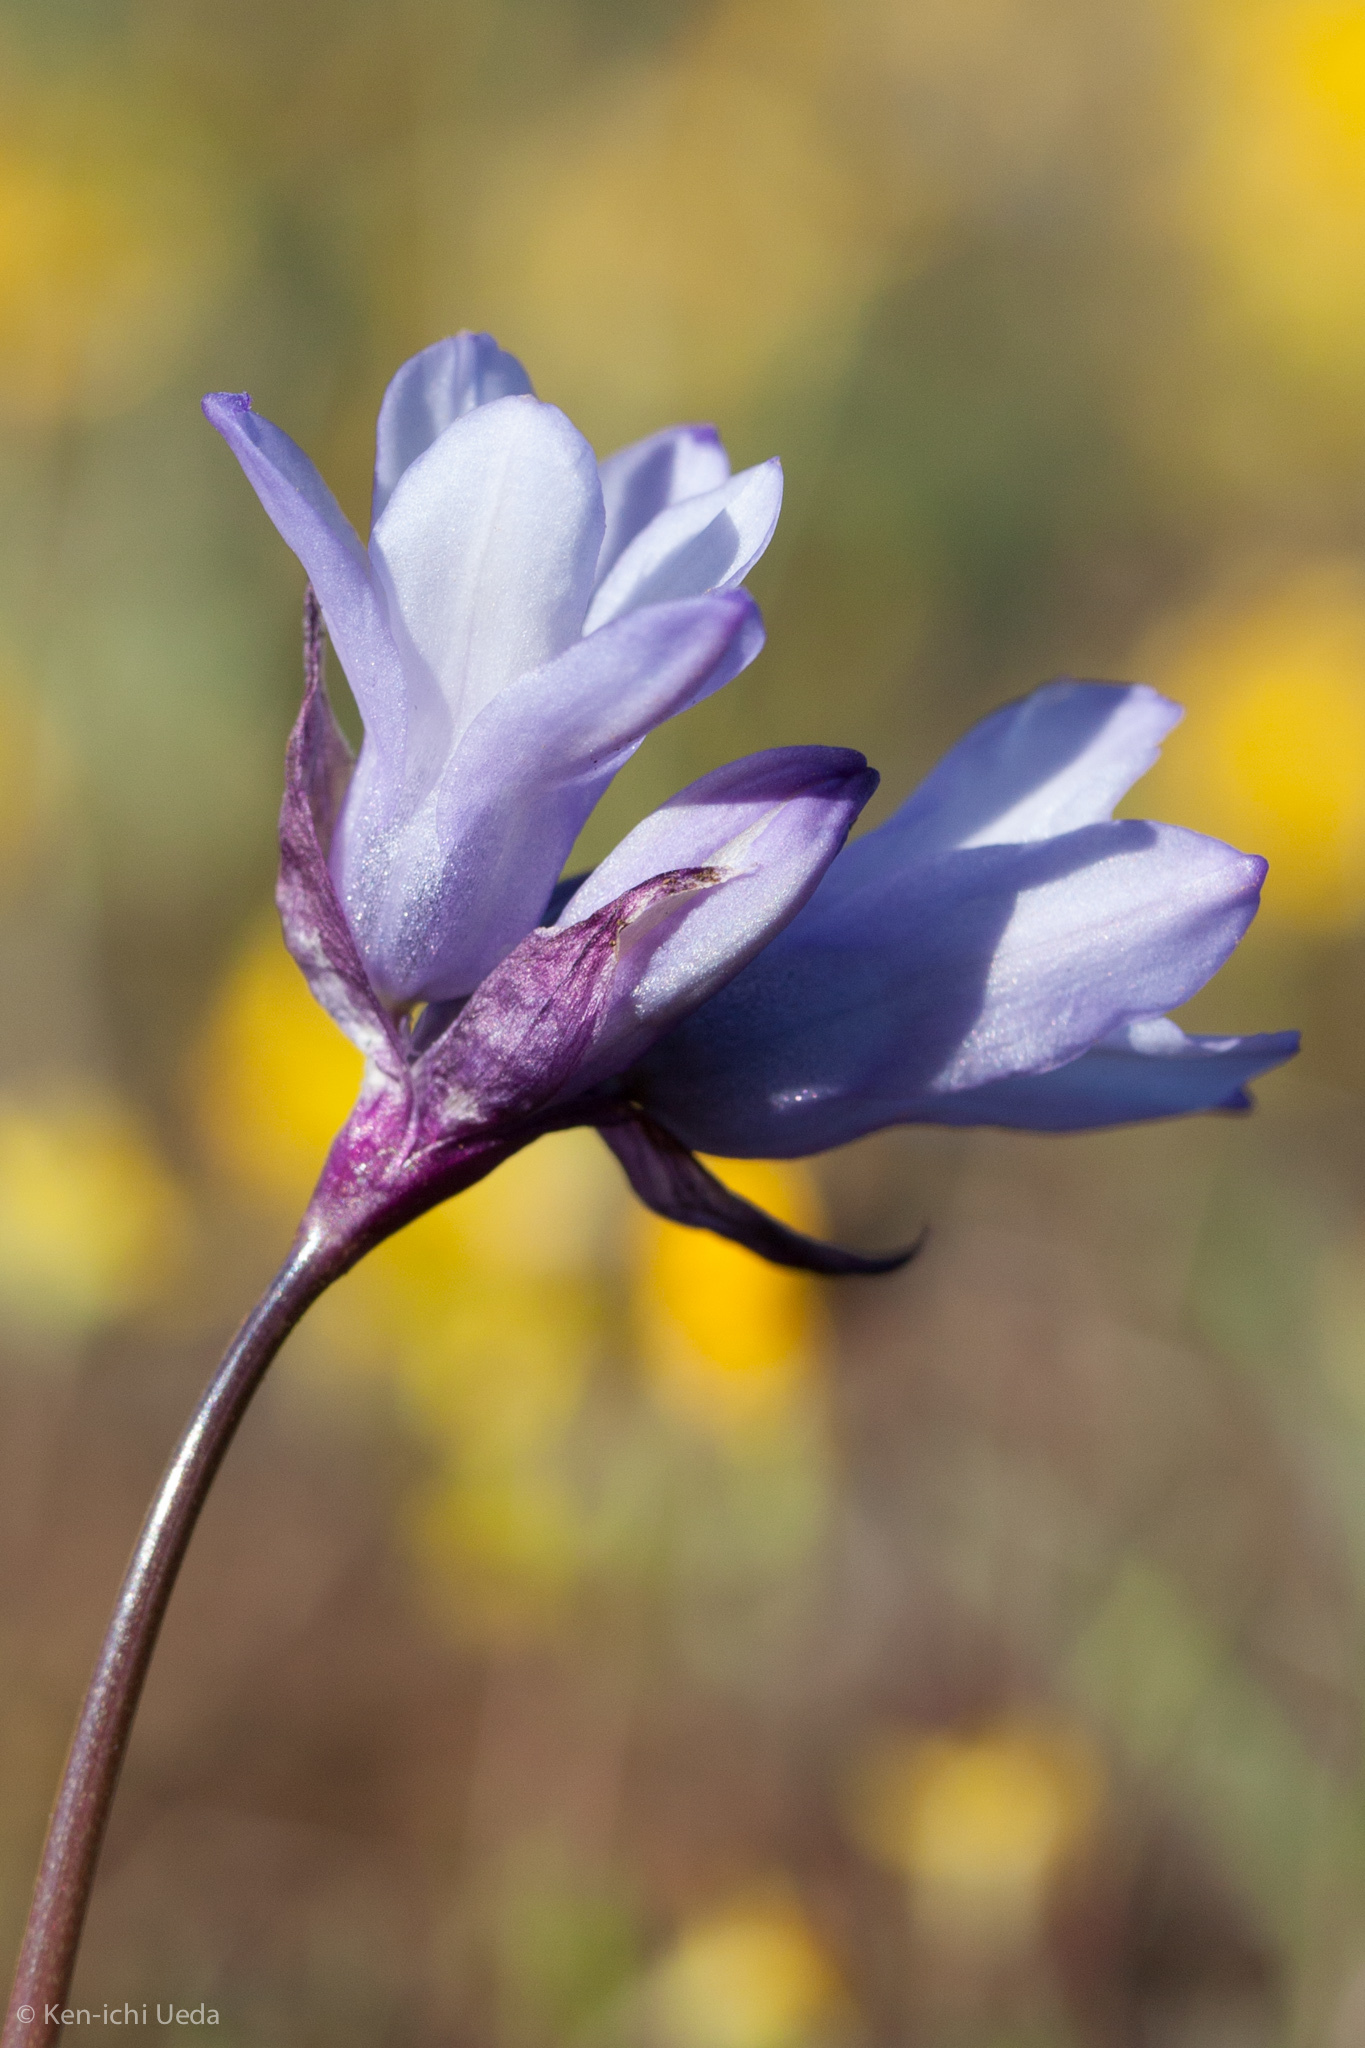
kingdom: Plantae
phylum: Tracheophyta
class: Liliopsida
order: Asparagales
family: Asparagaceae
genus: Dipterostemon
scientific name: Dipterostemon capitatus
